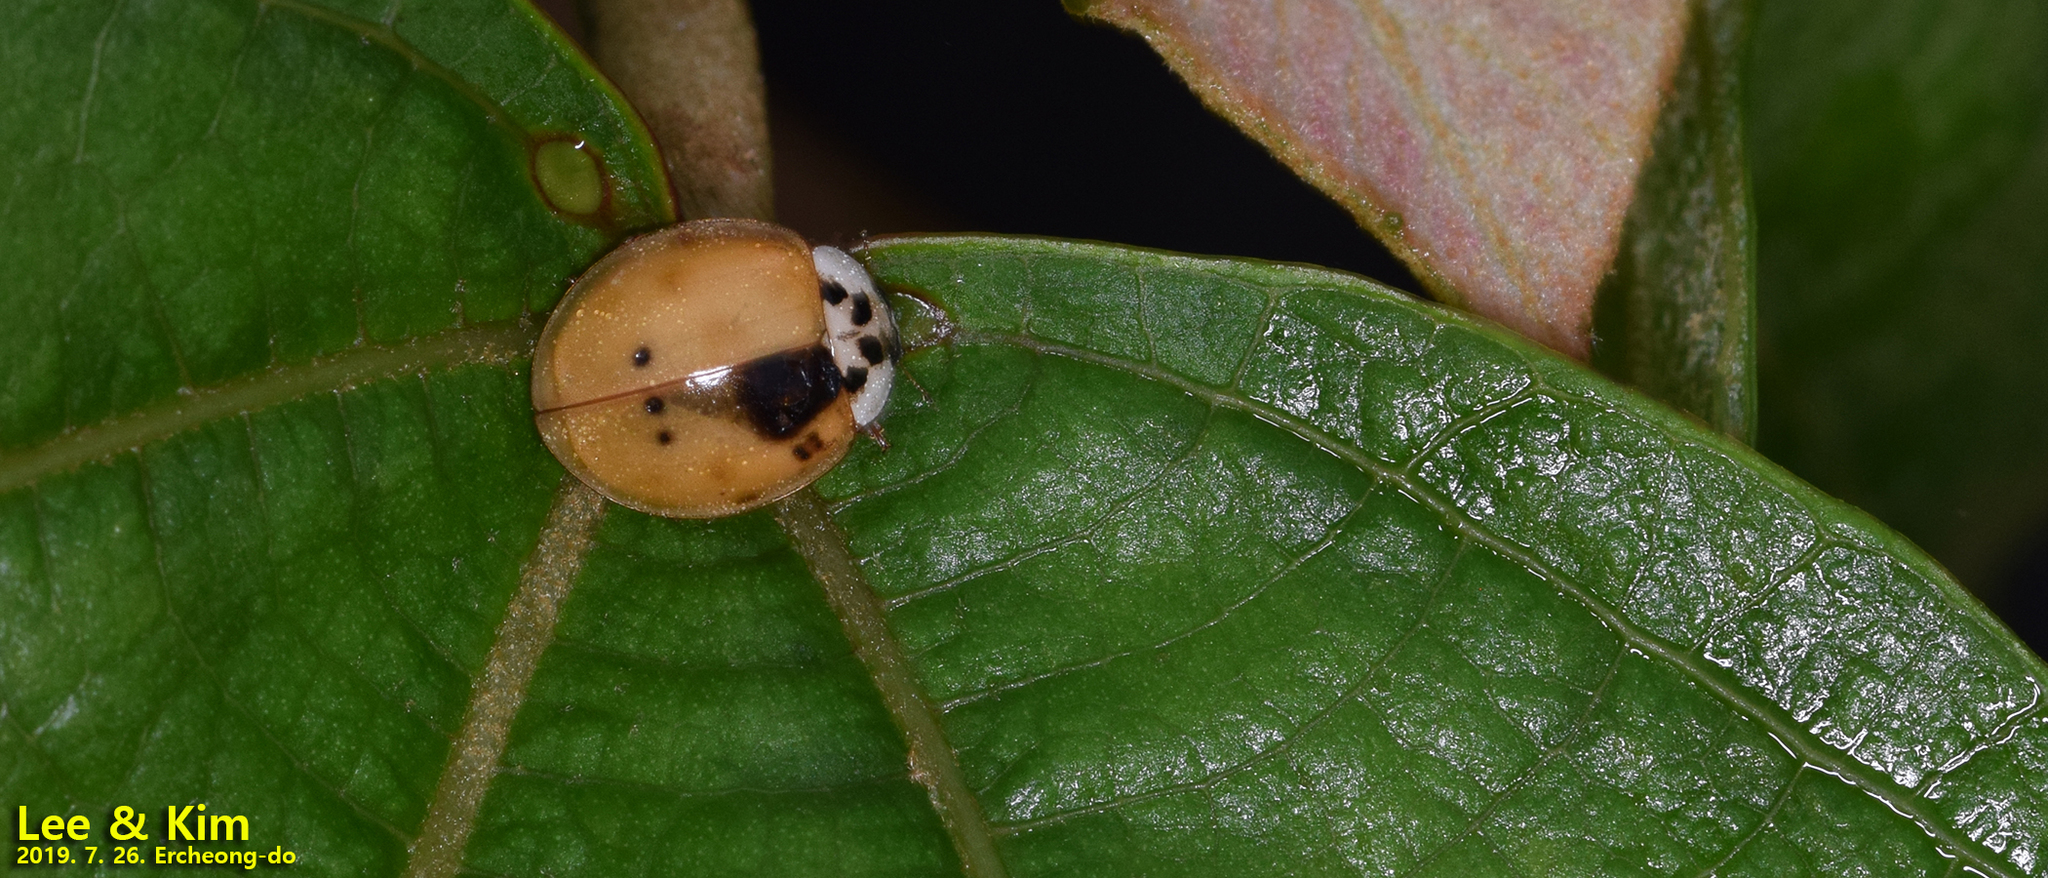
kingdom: Animalia
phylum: Arthropoda
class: Insecta
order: Coleoptera
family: Coccinellidae
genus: Harmonia
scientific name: Harmonia axyridis
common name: Harlequin ladybird
